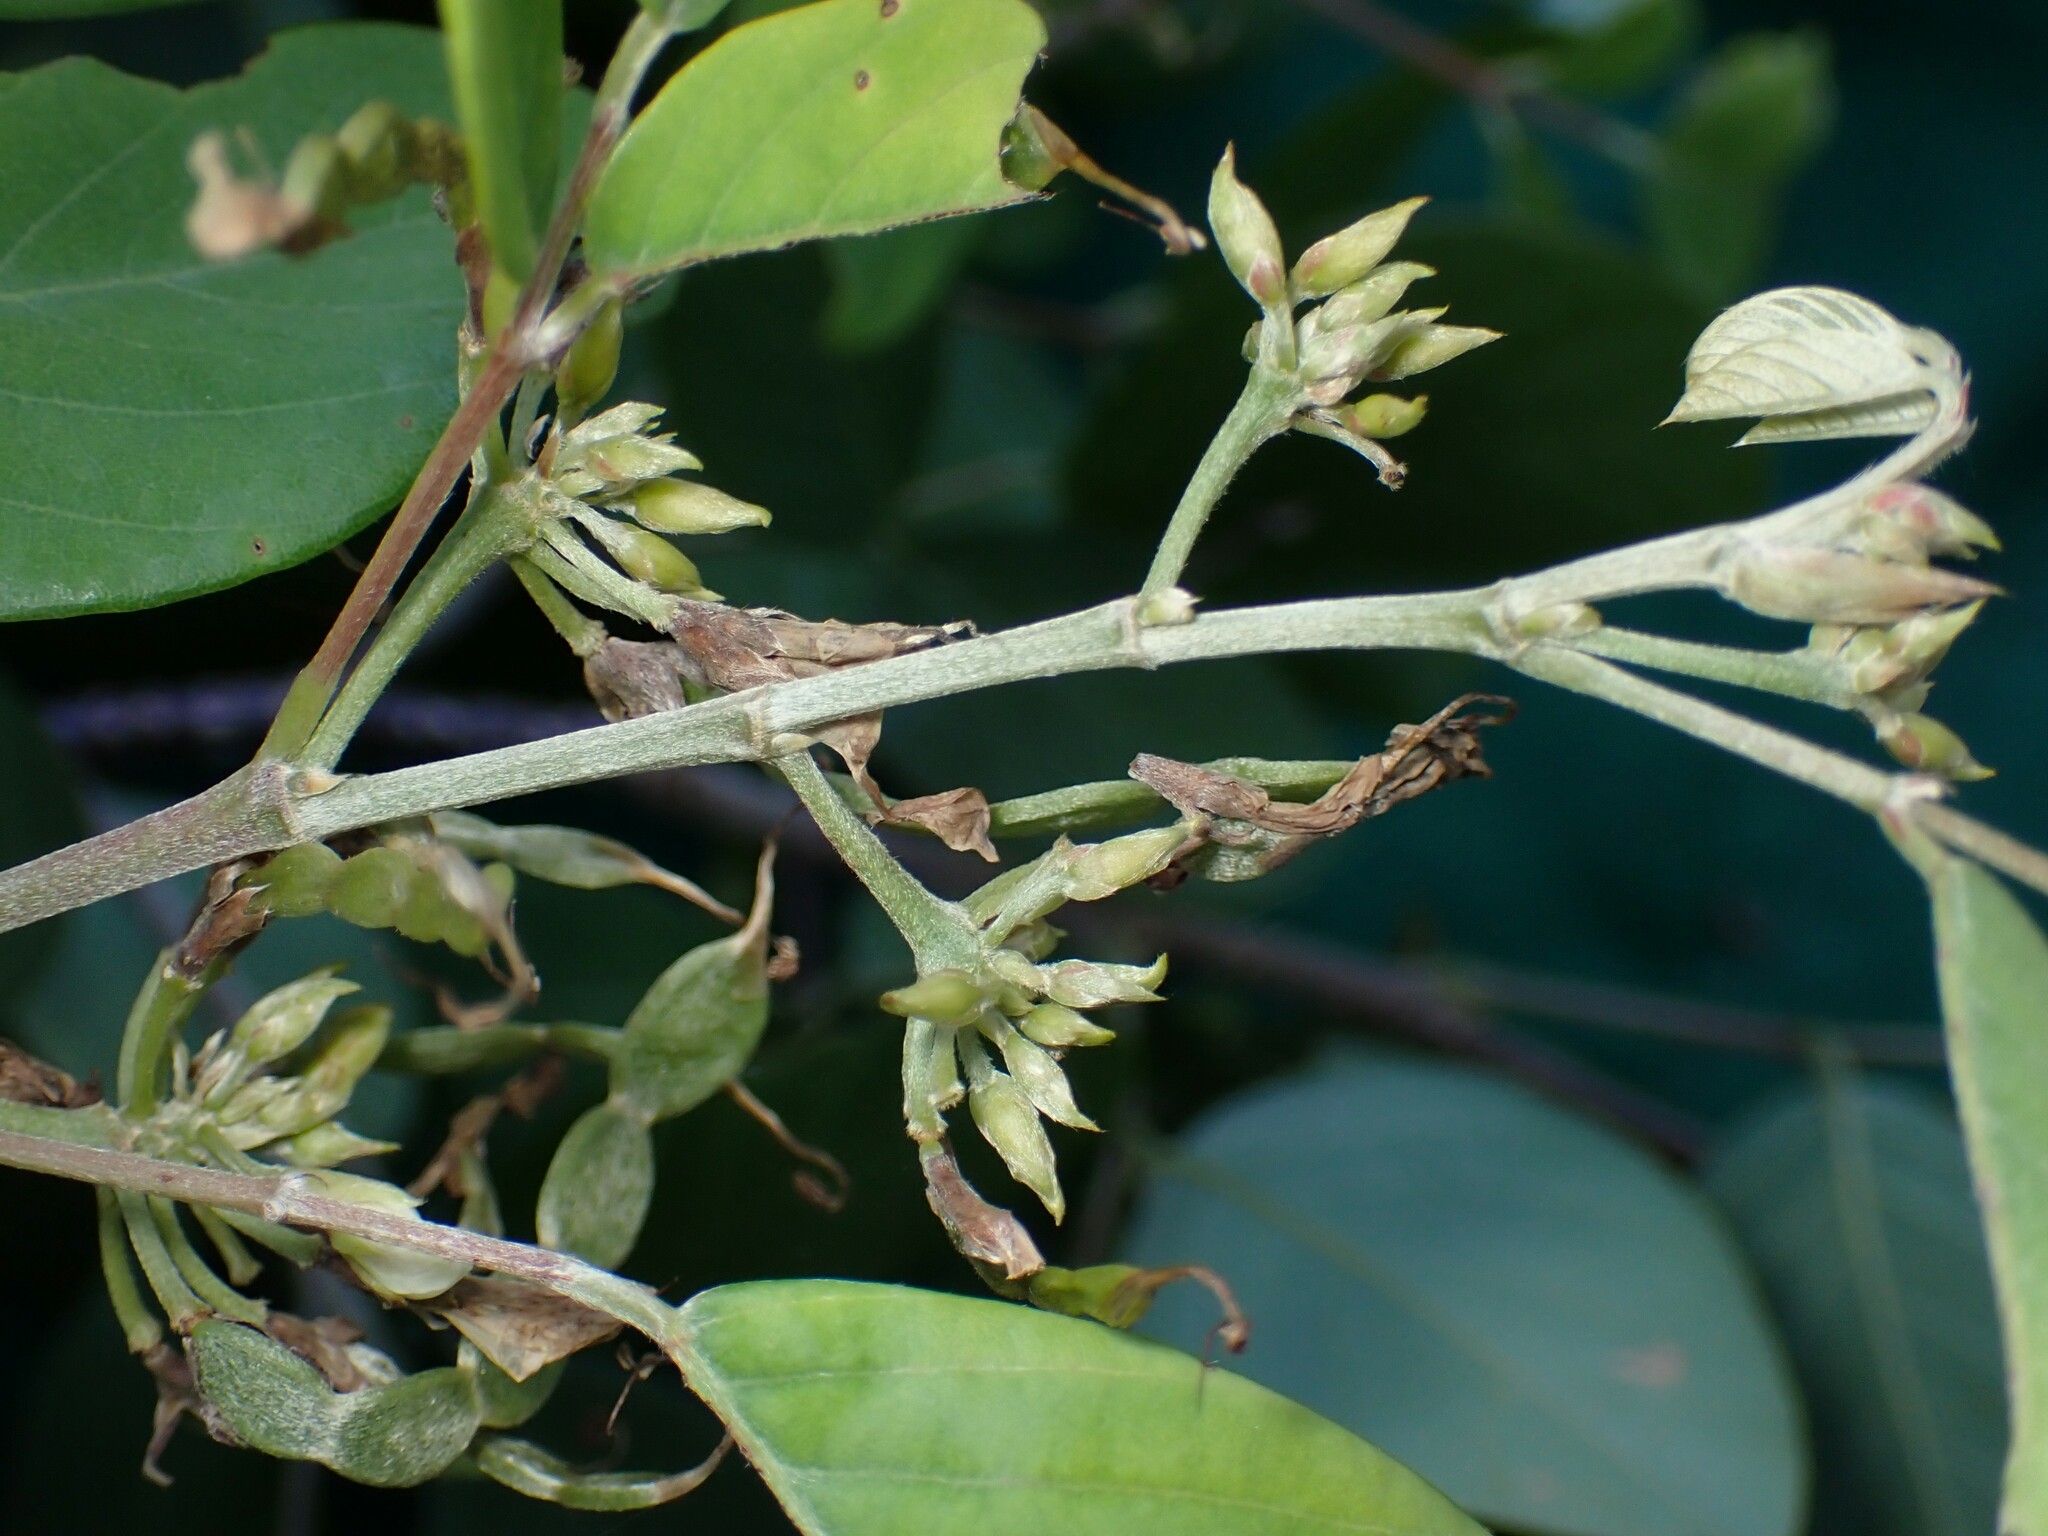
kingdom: Plantae
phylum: Tracheophyta
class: Magnoliopsida
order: Fabales
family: Fabaceae
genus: Dendrolobium
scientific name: Dendrolobium umbellatum
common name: Horsebush
